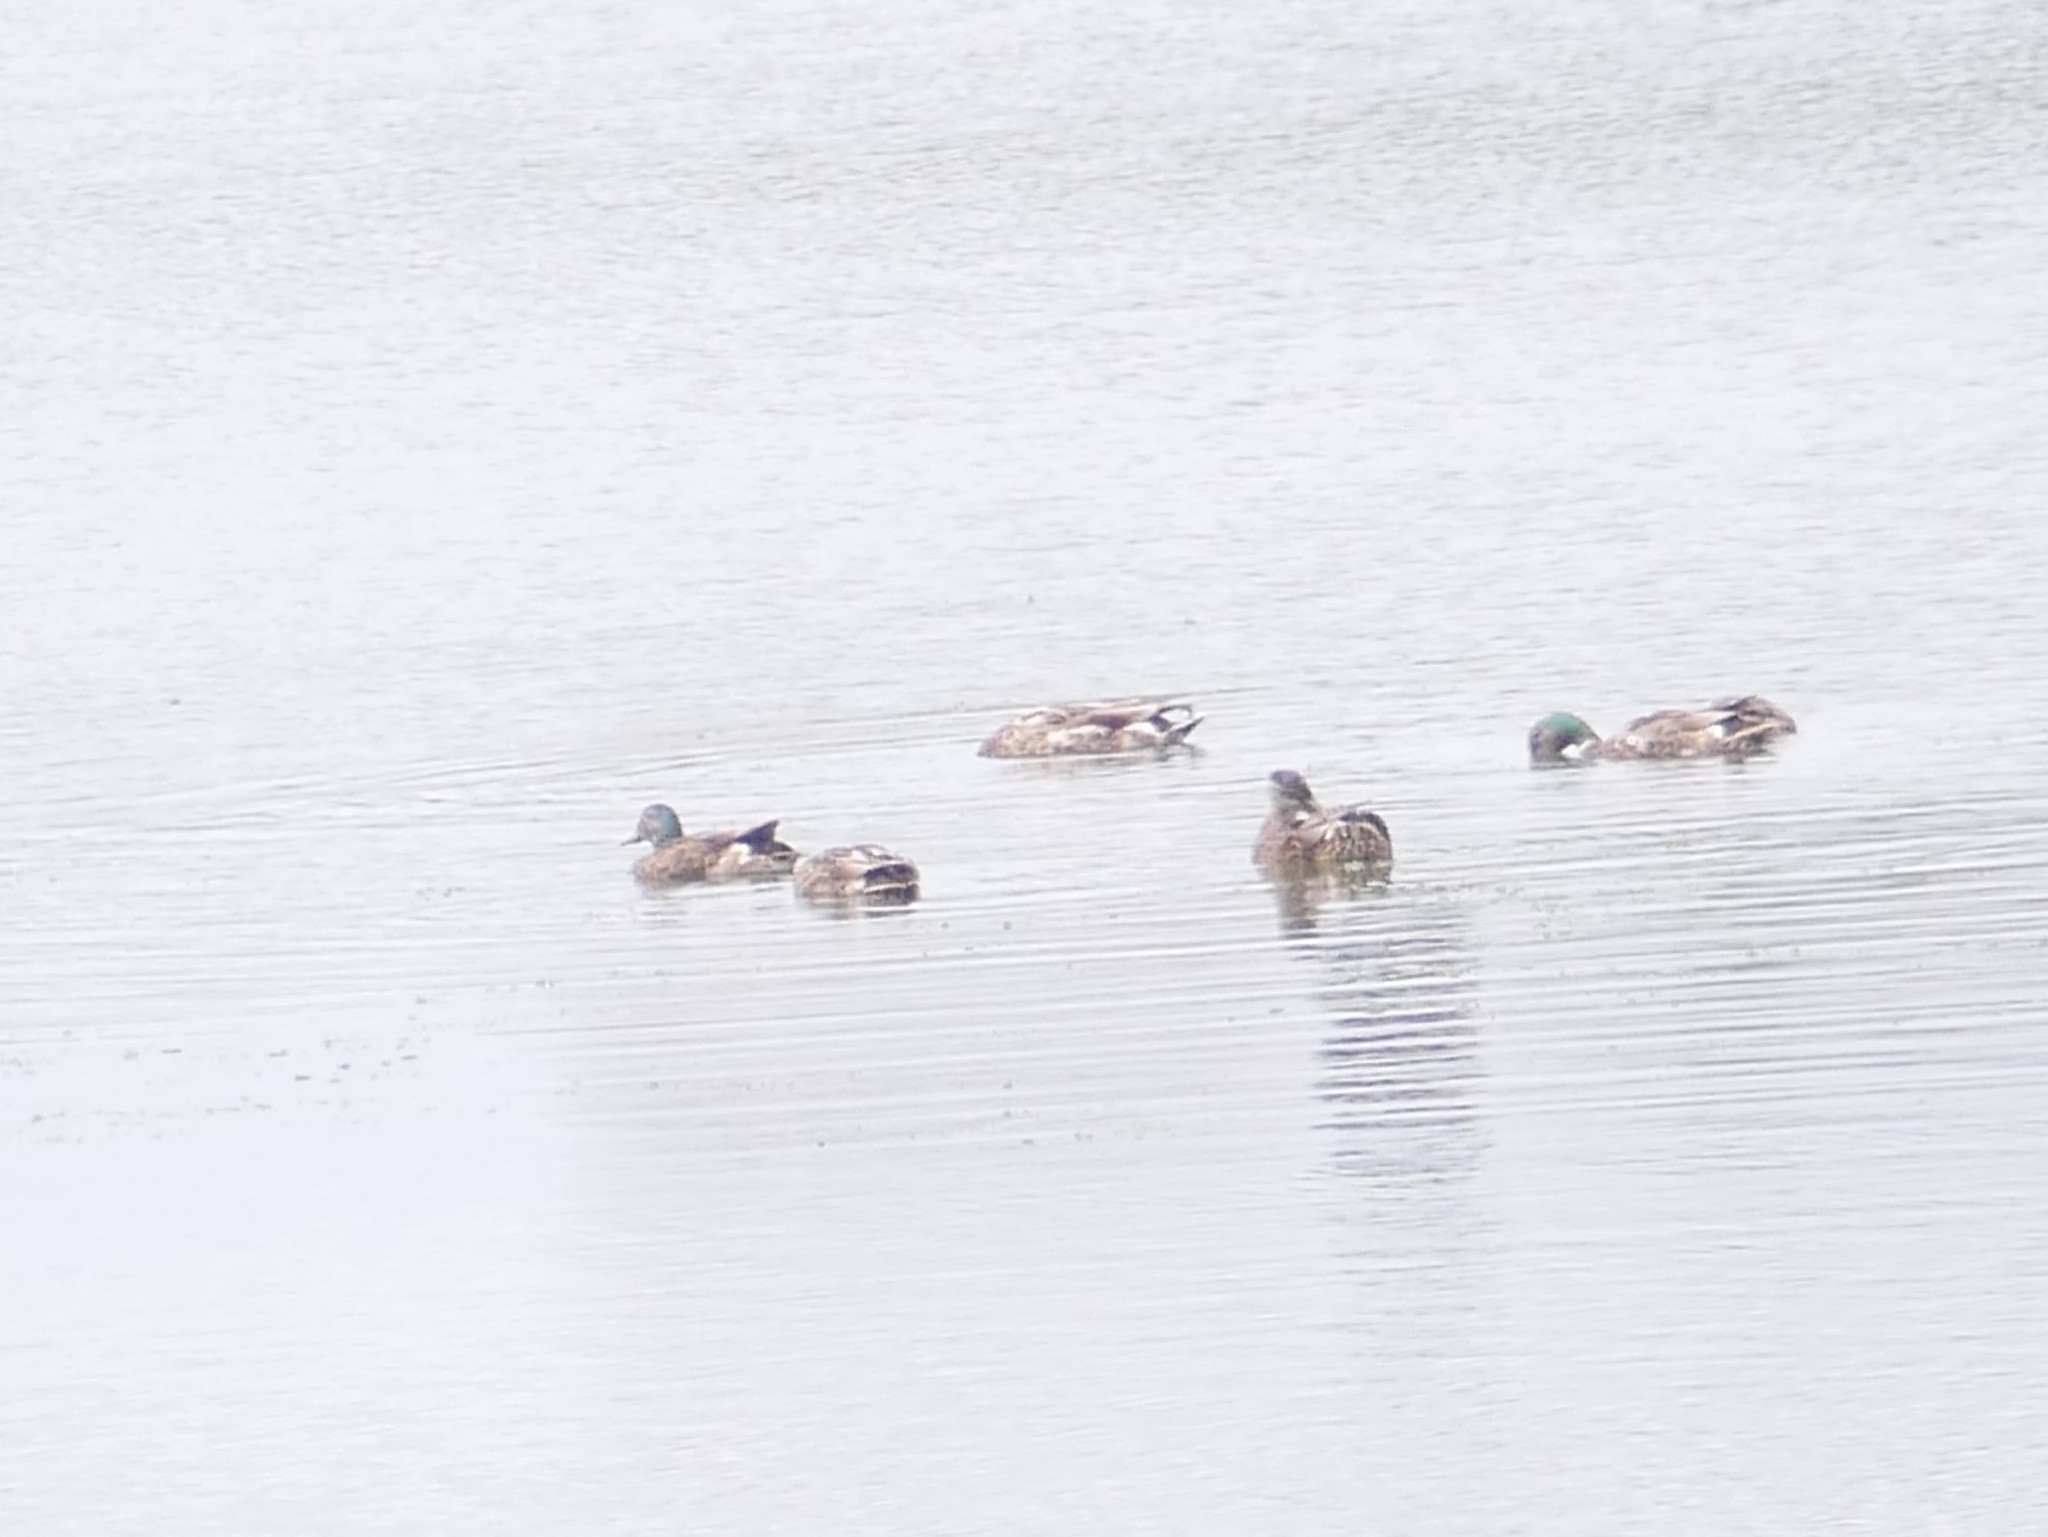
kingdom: Animalia
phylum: Chordata
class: Aves
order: Anseriformes
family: Anatidae
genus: Anas
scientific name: Anas platyrhynchos
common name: Mallard
